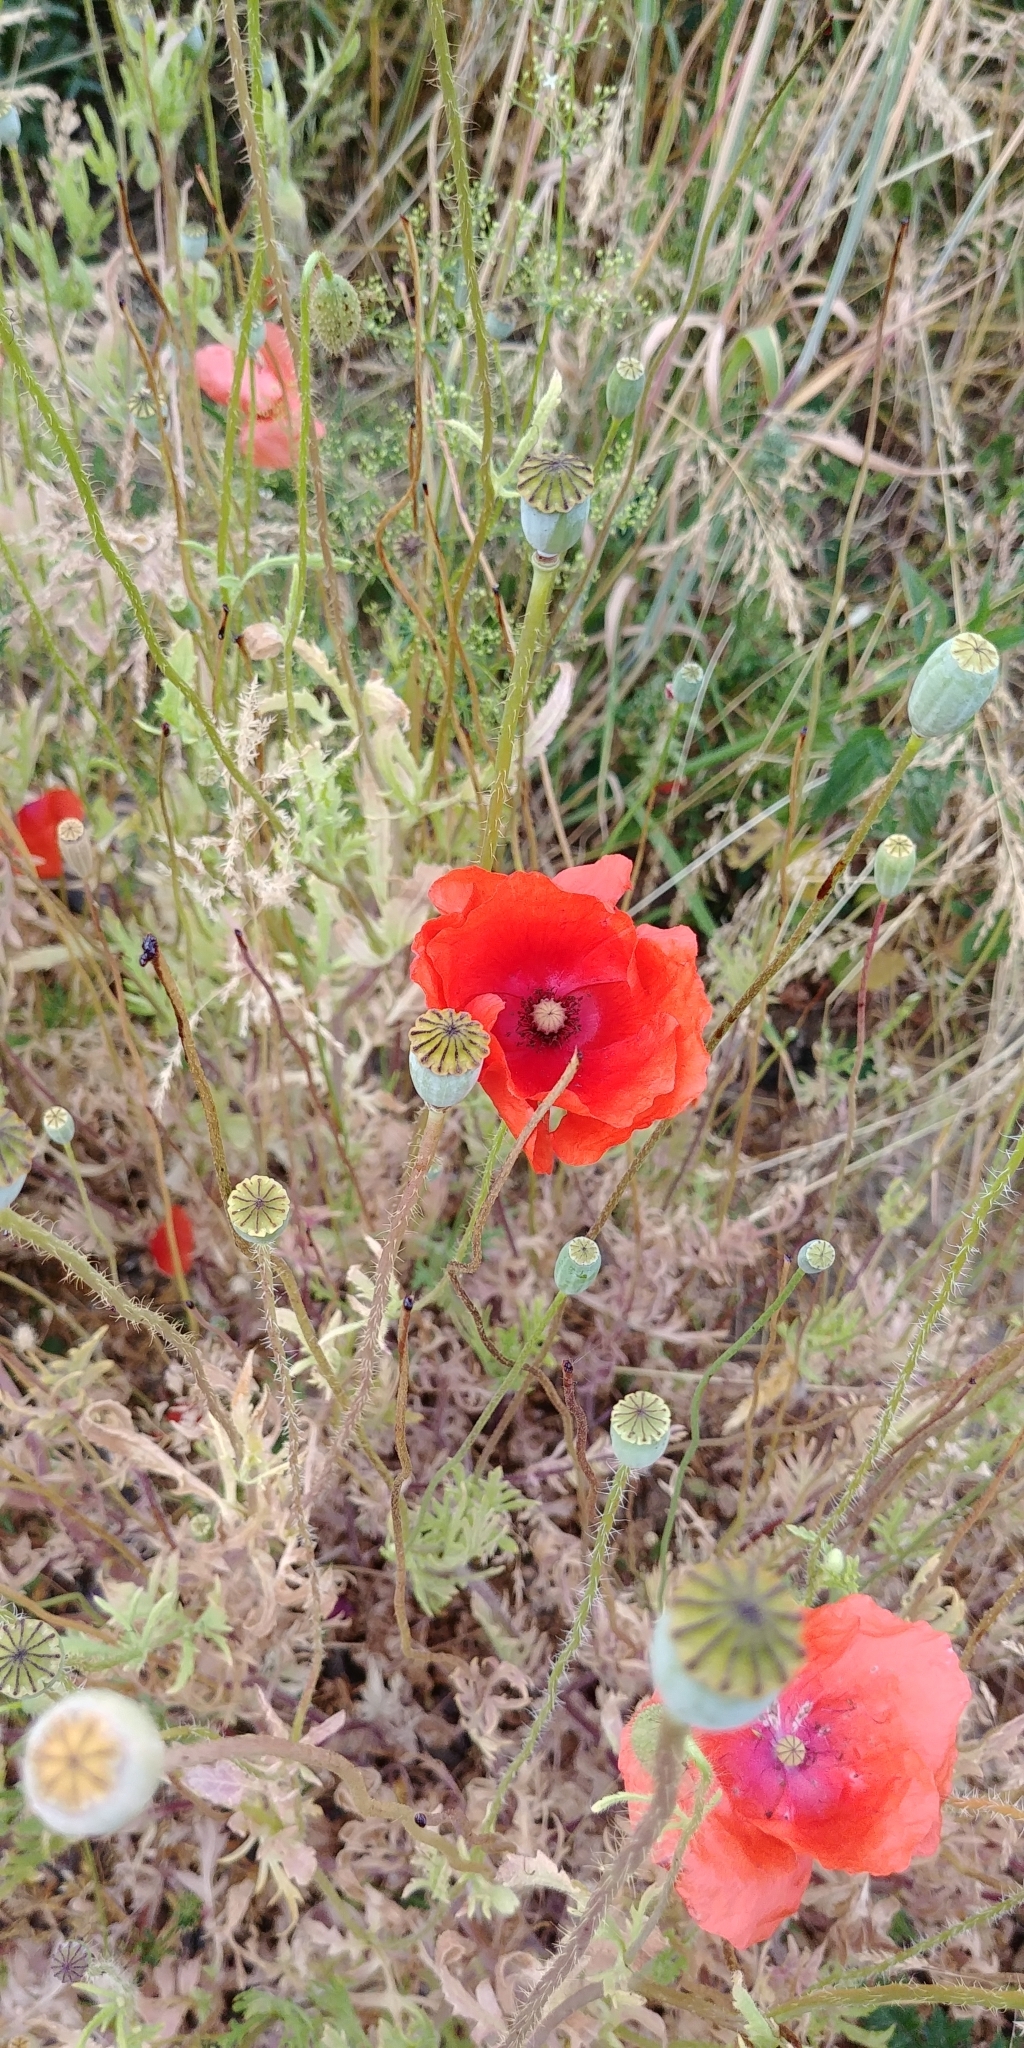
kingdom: Plantae
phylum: Tracheophyta
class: Magnoliopsida
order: Ranunculales
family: Papaveraceae
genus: Papaver
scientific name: Papaver rhoeas
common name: Corn poppy
